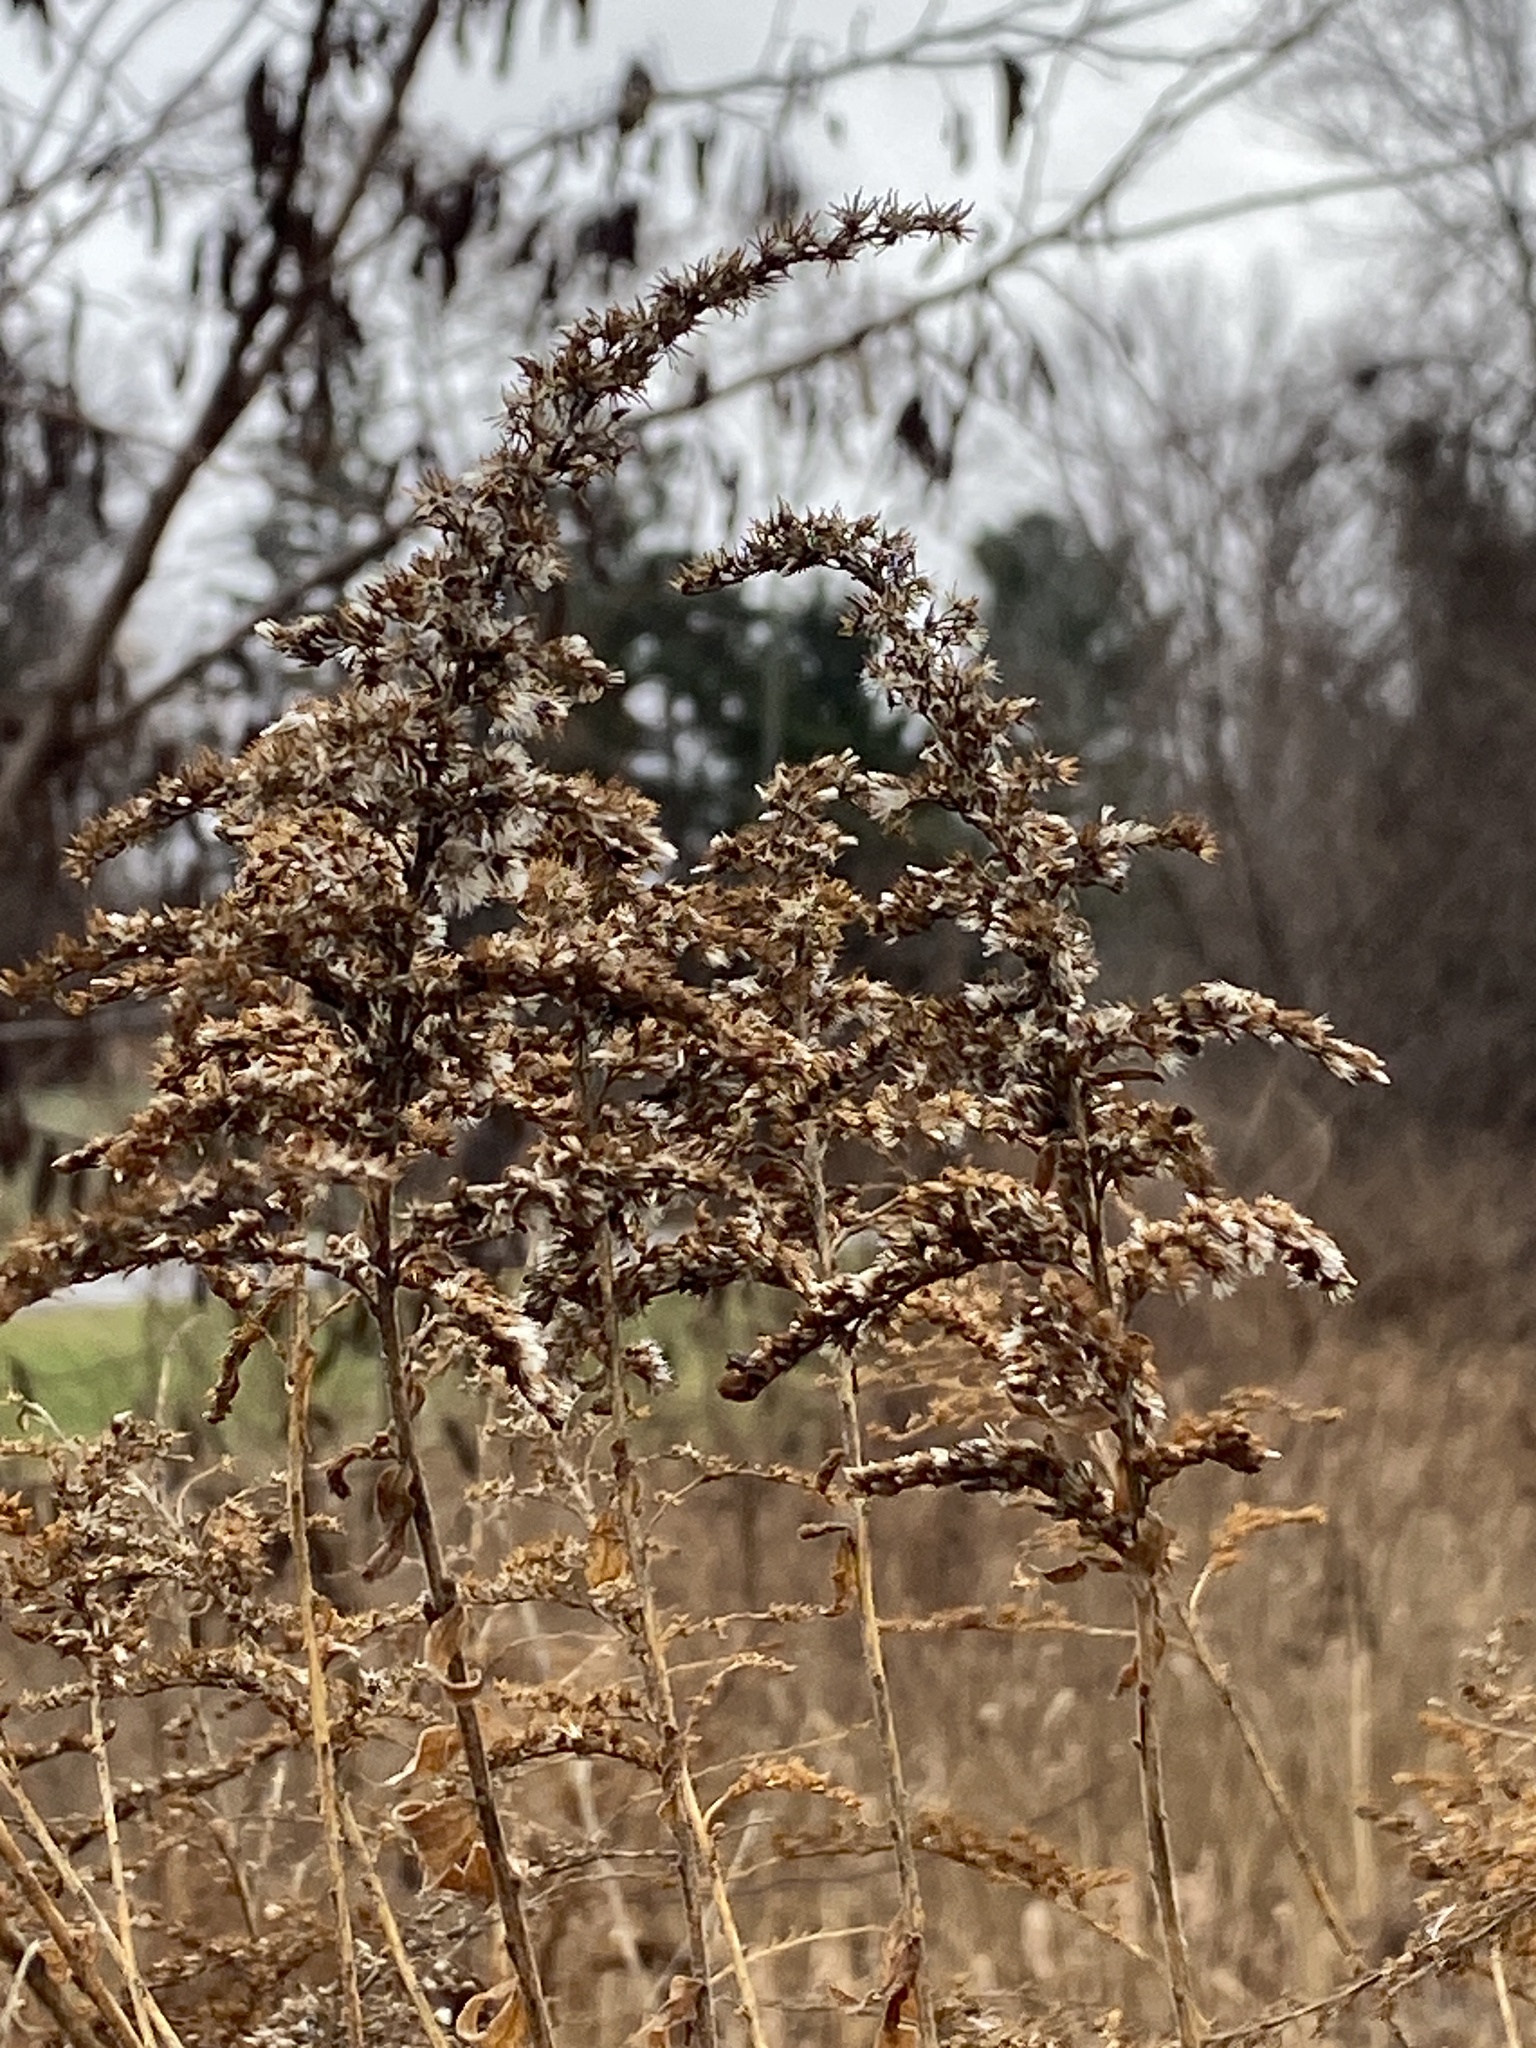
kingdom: Plantae
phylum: Tracheophyta
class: Magnoliopsida
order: Asterales
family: Asteraceae
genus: Solidago
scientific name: Solidago altissima
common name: Late goldenrod
